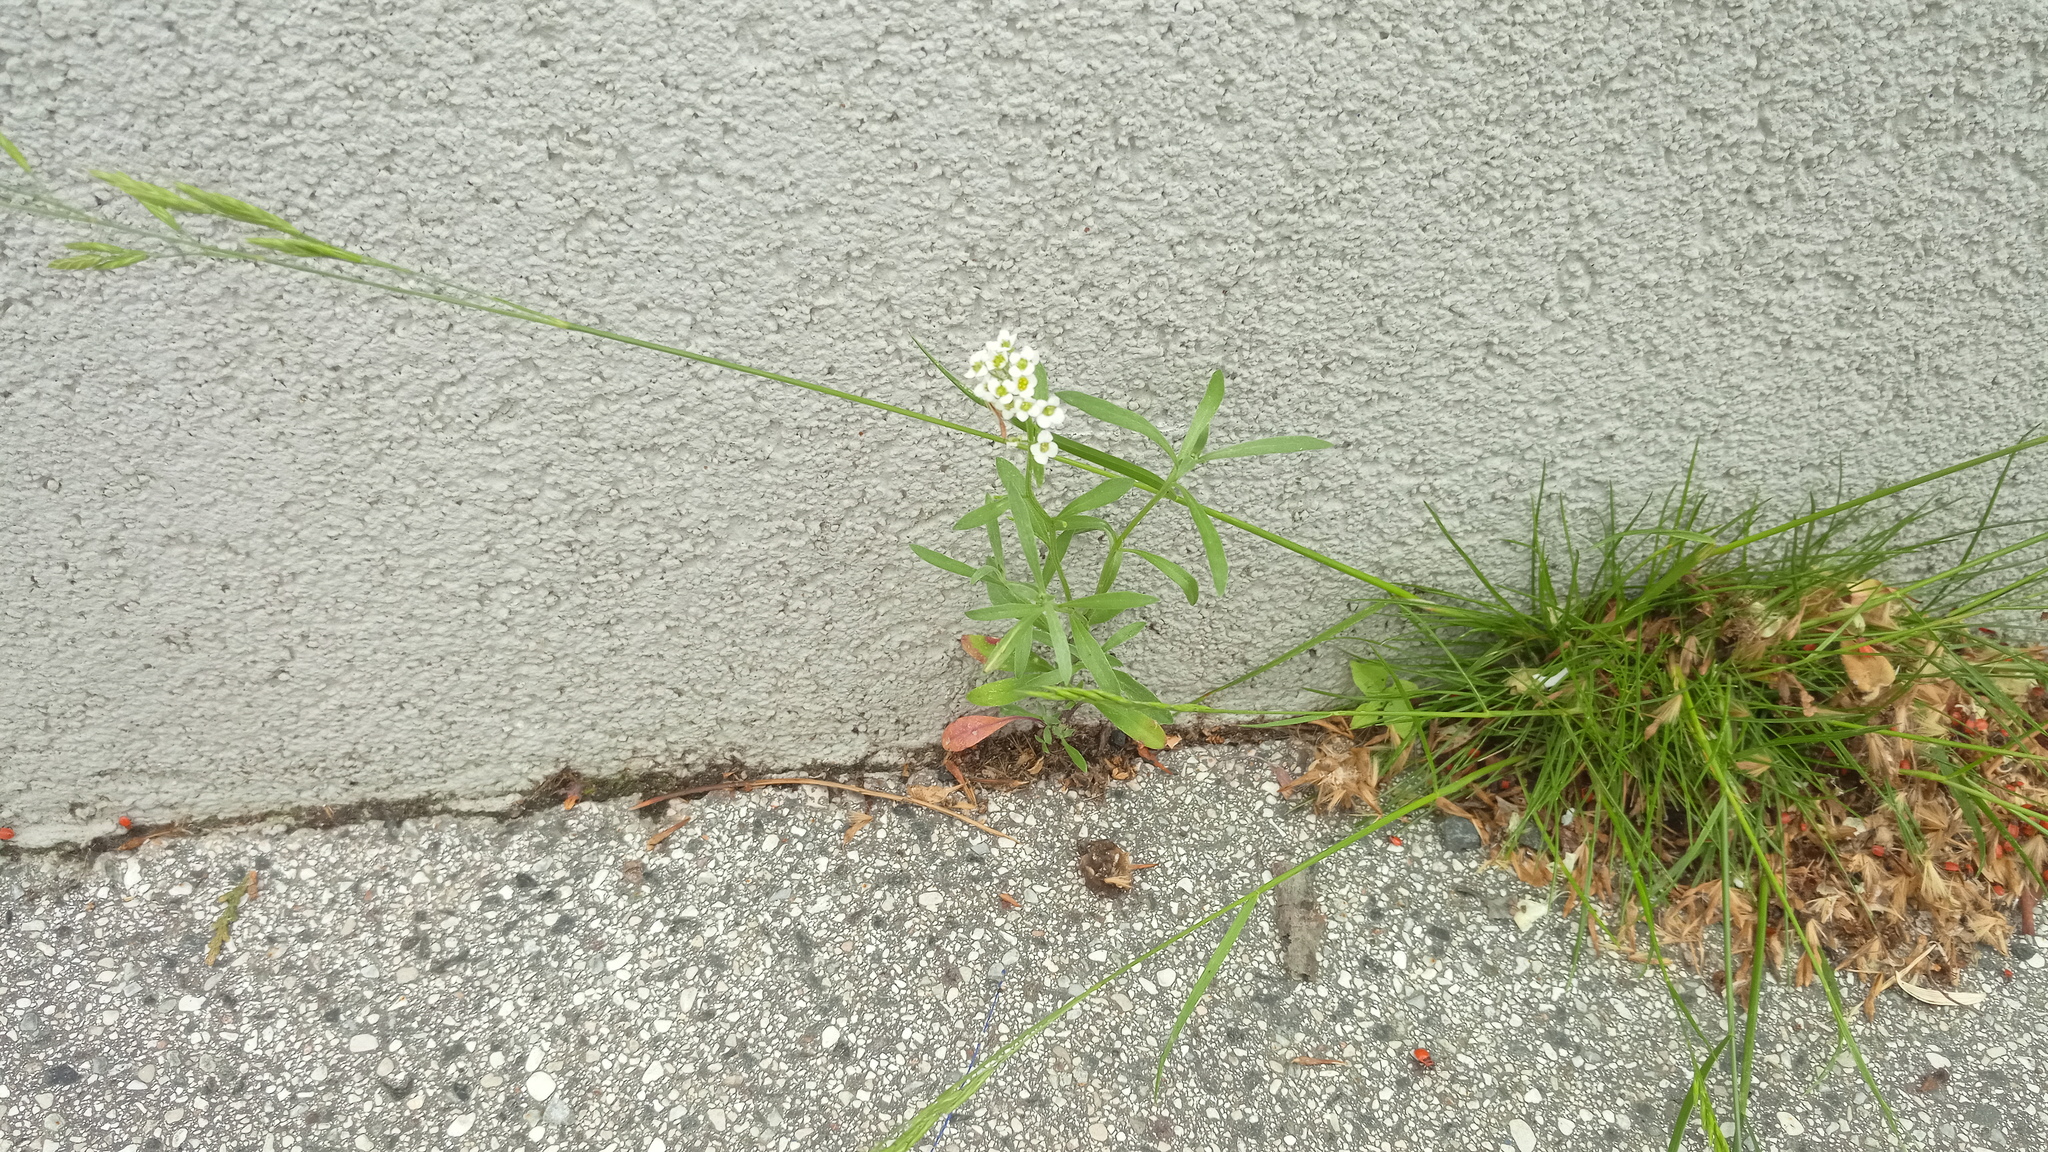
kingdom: Plantae
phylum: Tracheophyta
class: Magnoliopsida
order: Brassicales
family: Brassicaceae
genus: Lobularia
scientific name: Lobularia maritima
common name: Sweet alison
